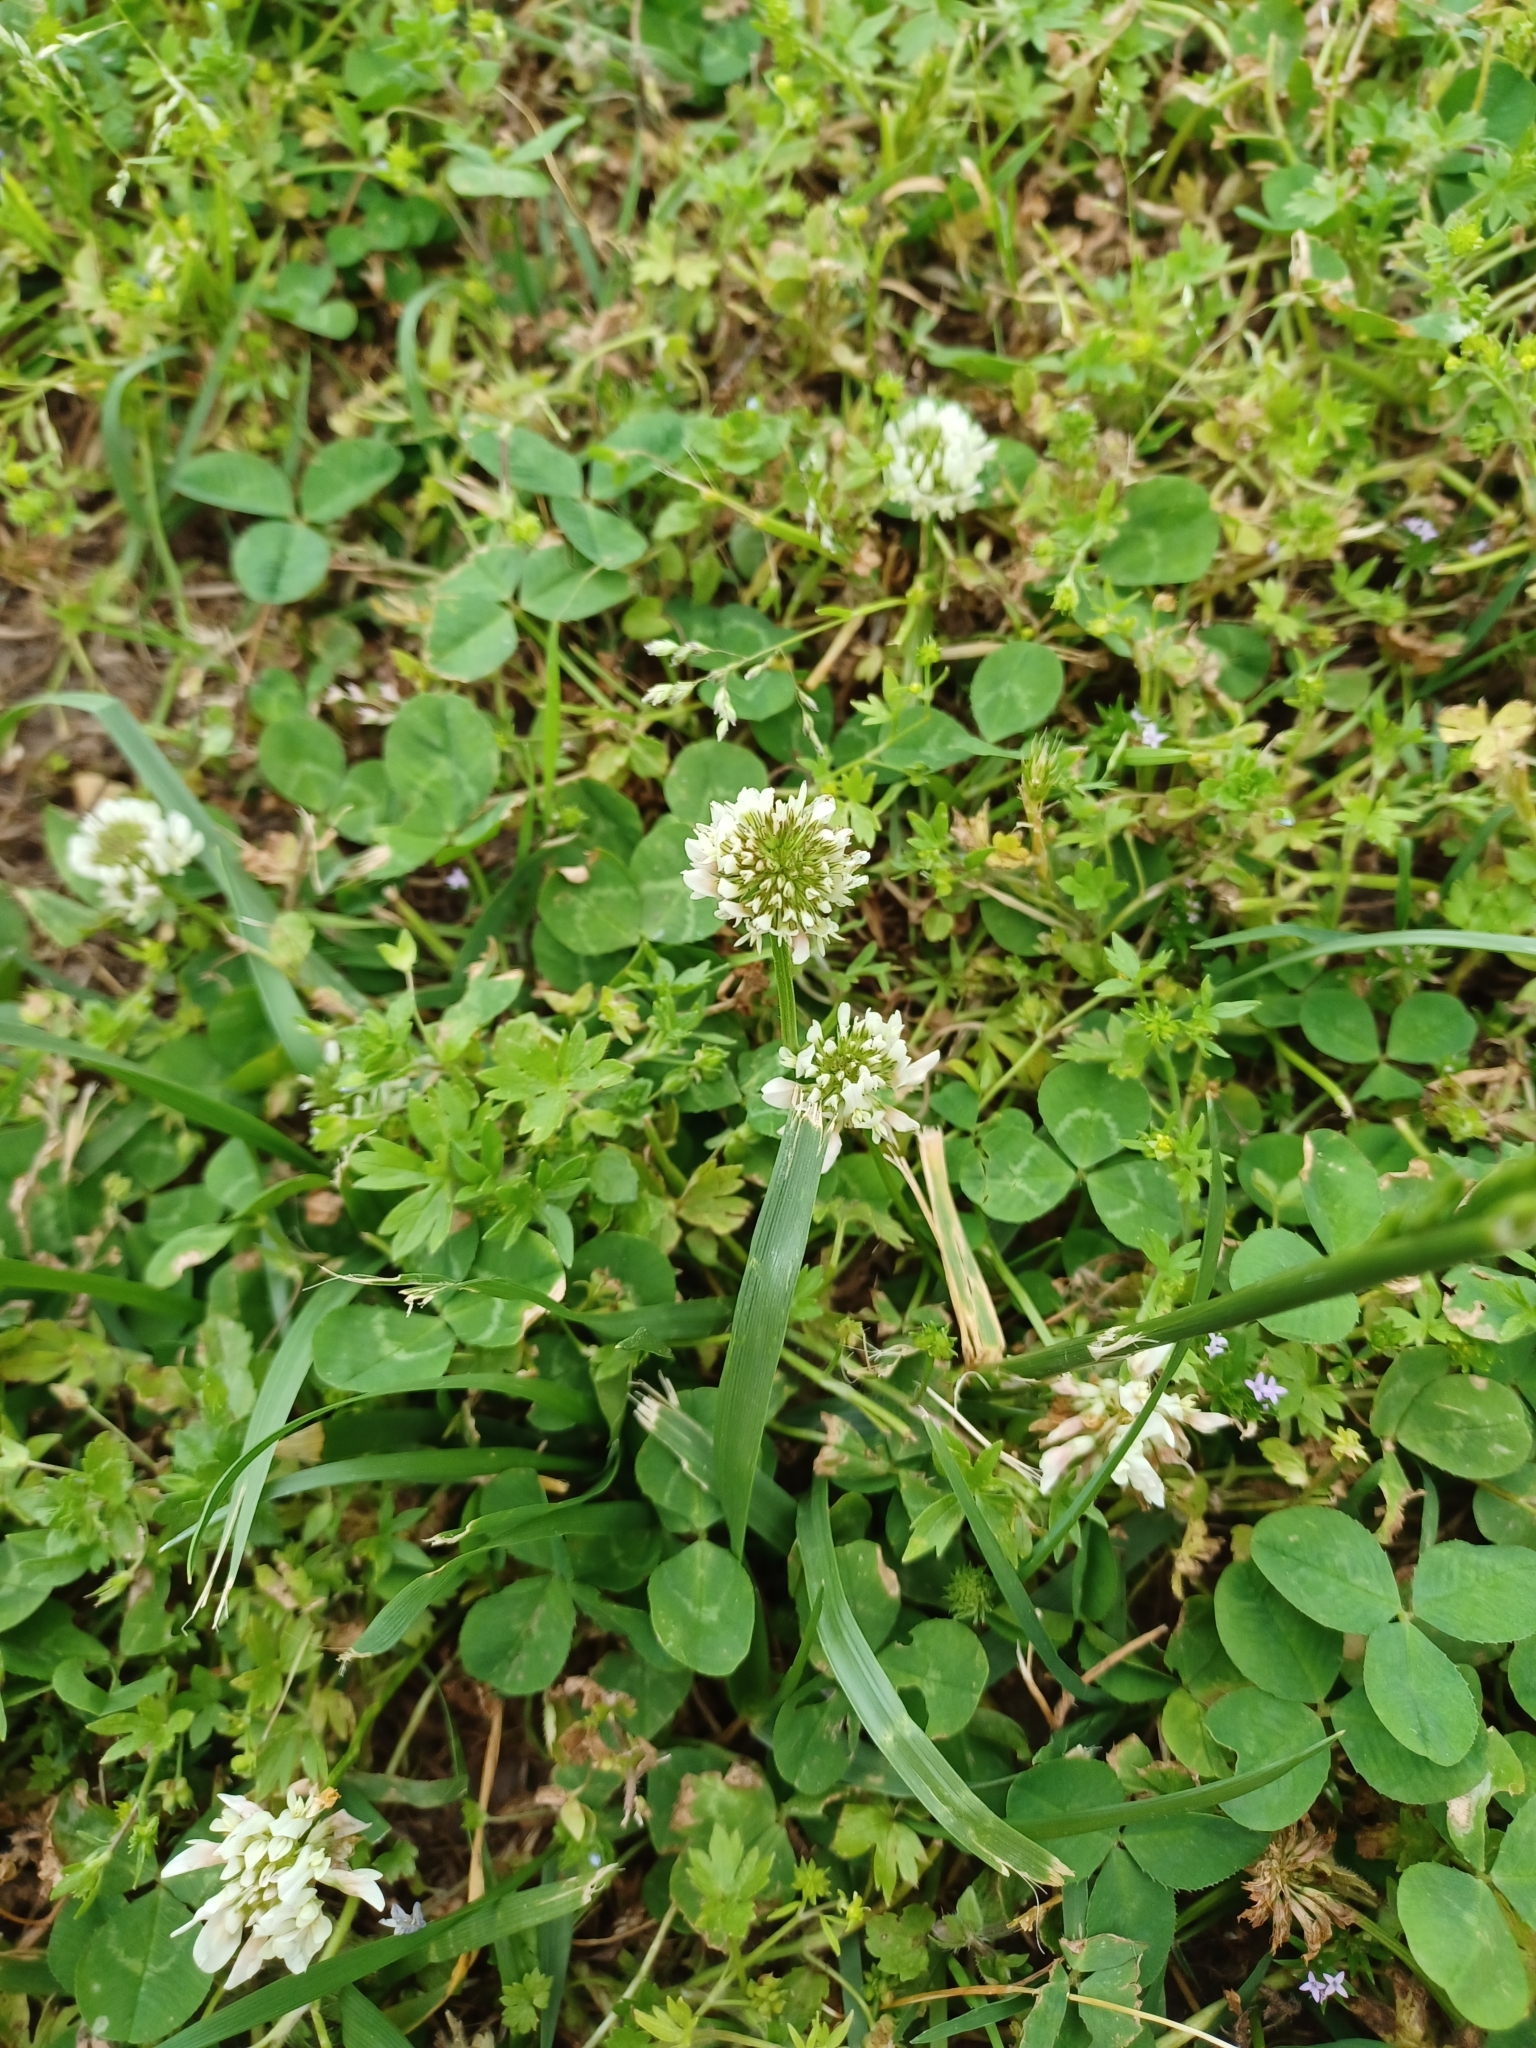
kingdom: Plantae
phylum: Tracheophyta
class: Magnoliopsida
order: Fabales
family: Fabaceae
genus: Trifolium
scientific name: Trifolium repens
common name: White clover
